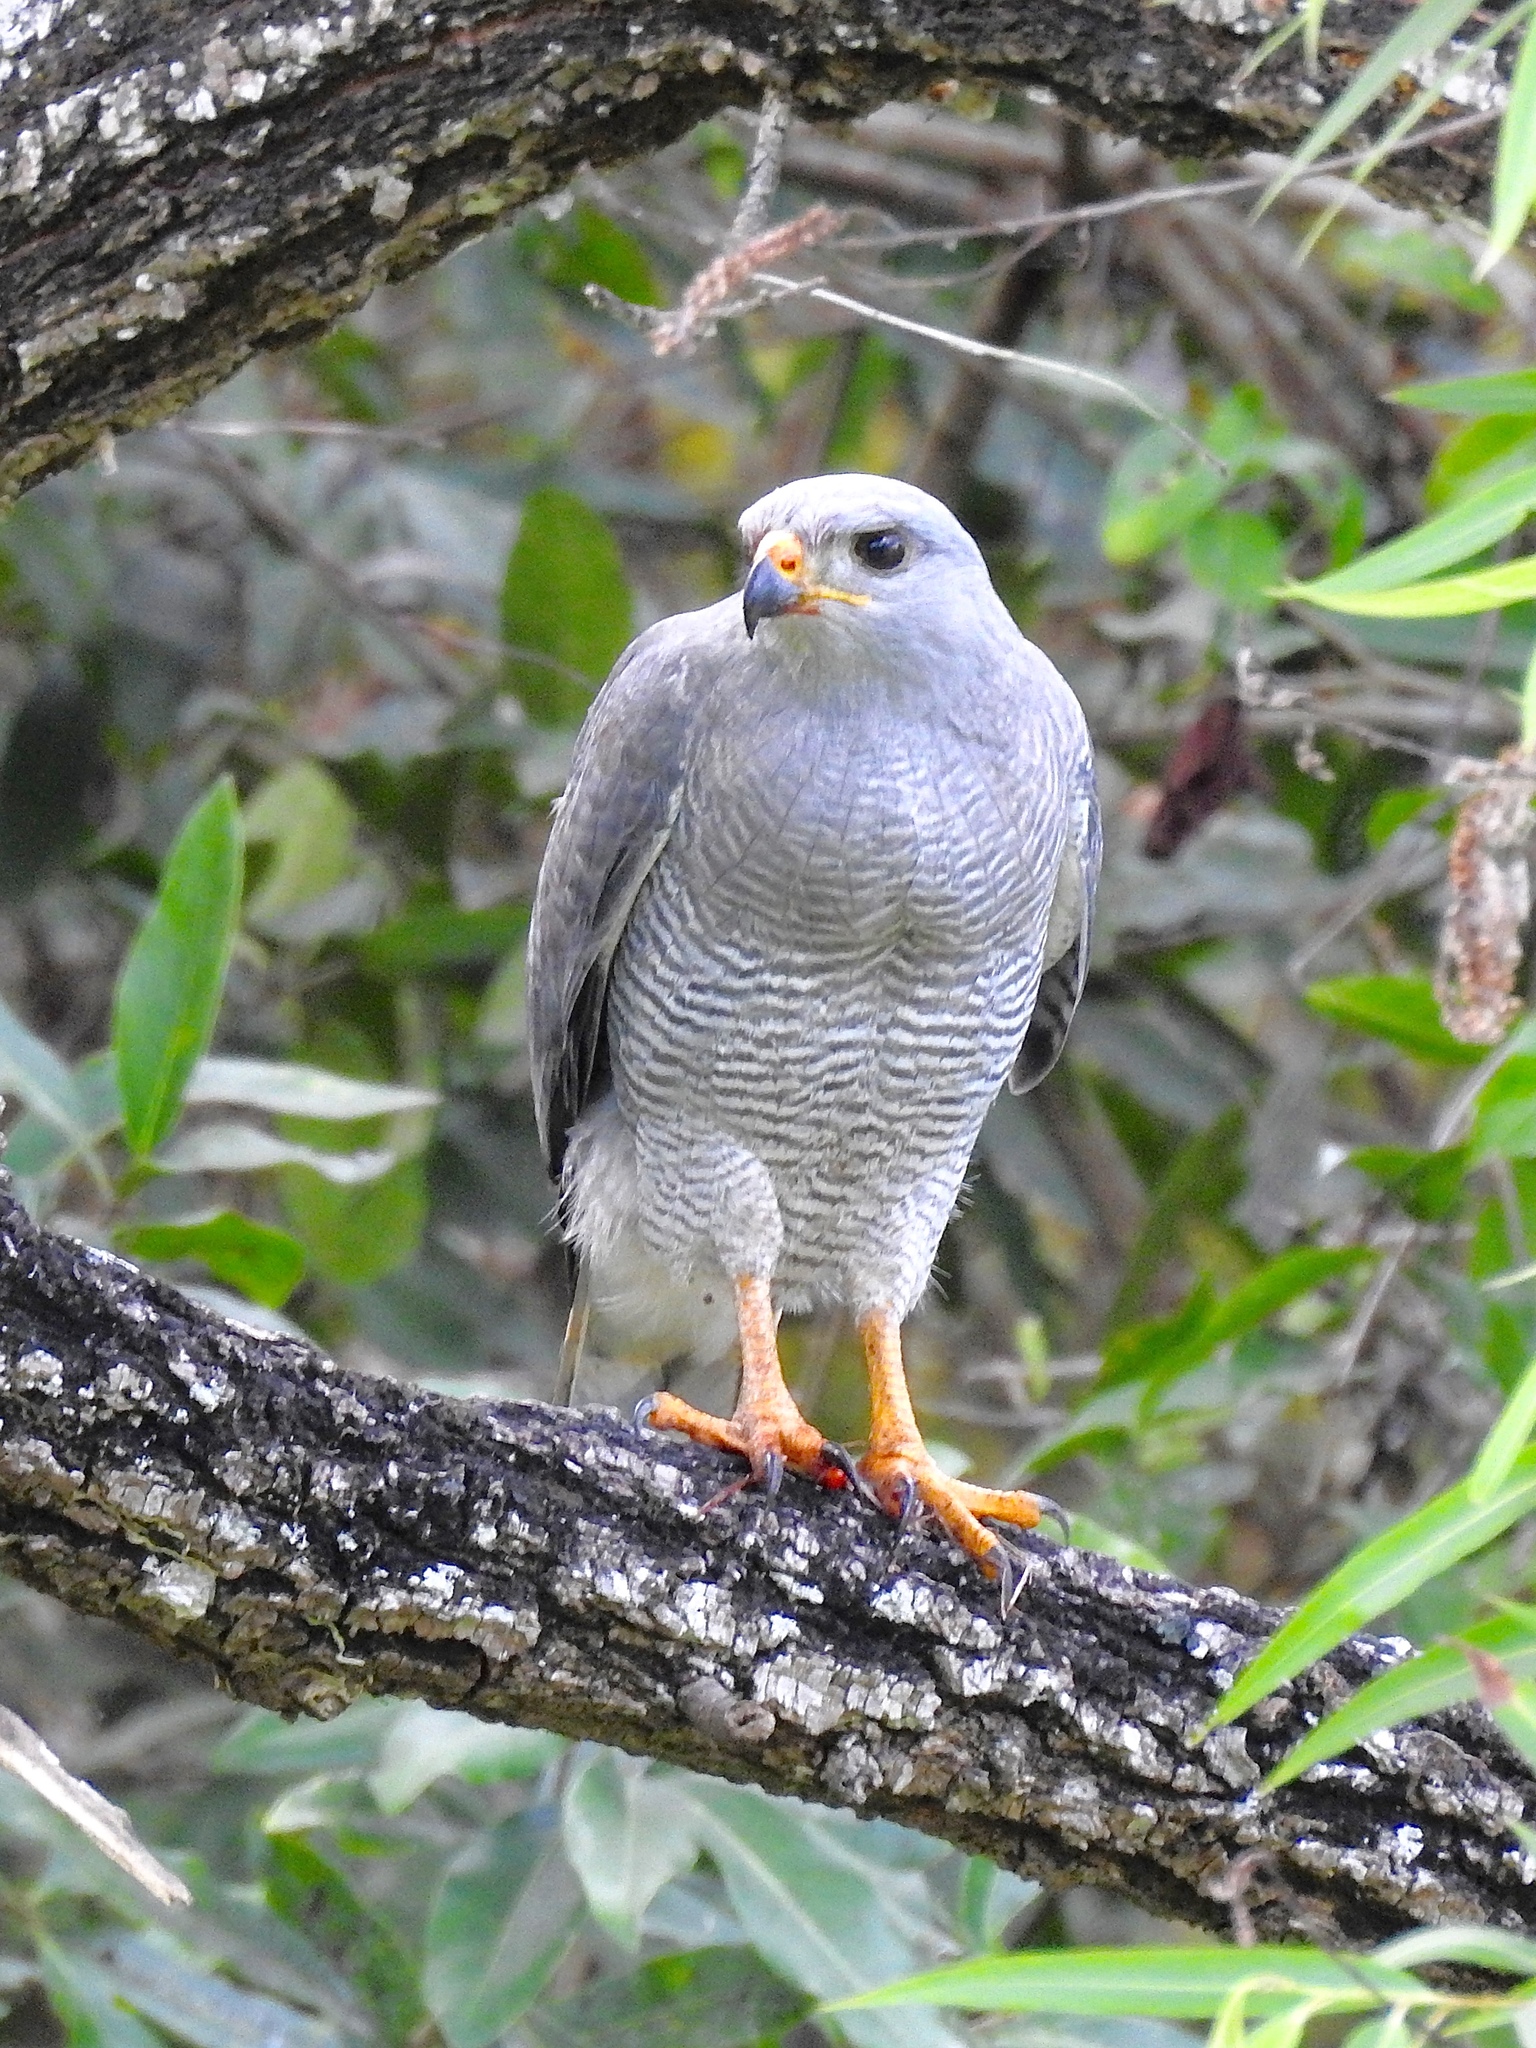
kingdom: Animalia
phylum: Chordata
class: Aves
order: Accipitriformes
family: Accipitridae
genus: Buteo
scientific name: Buteo nitidus
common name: Grey-lined hawk
